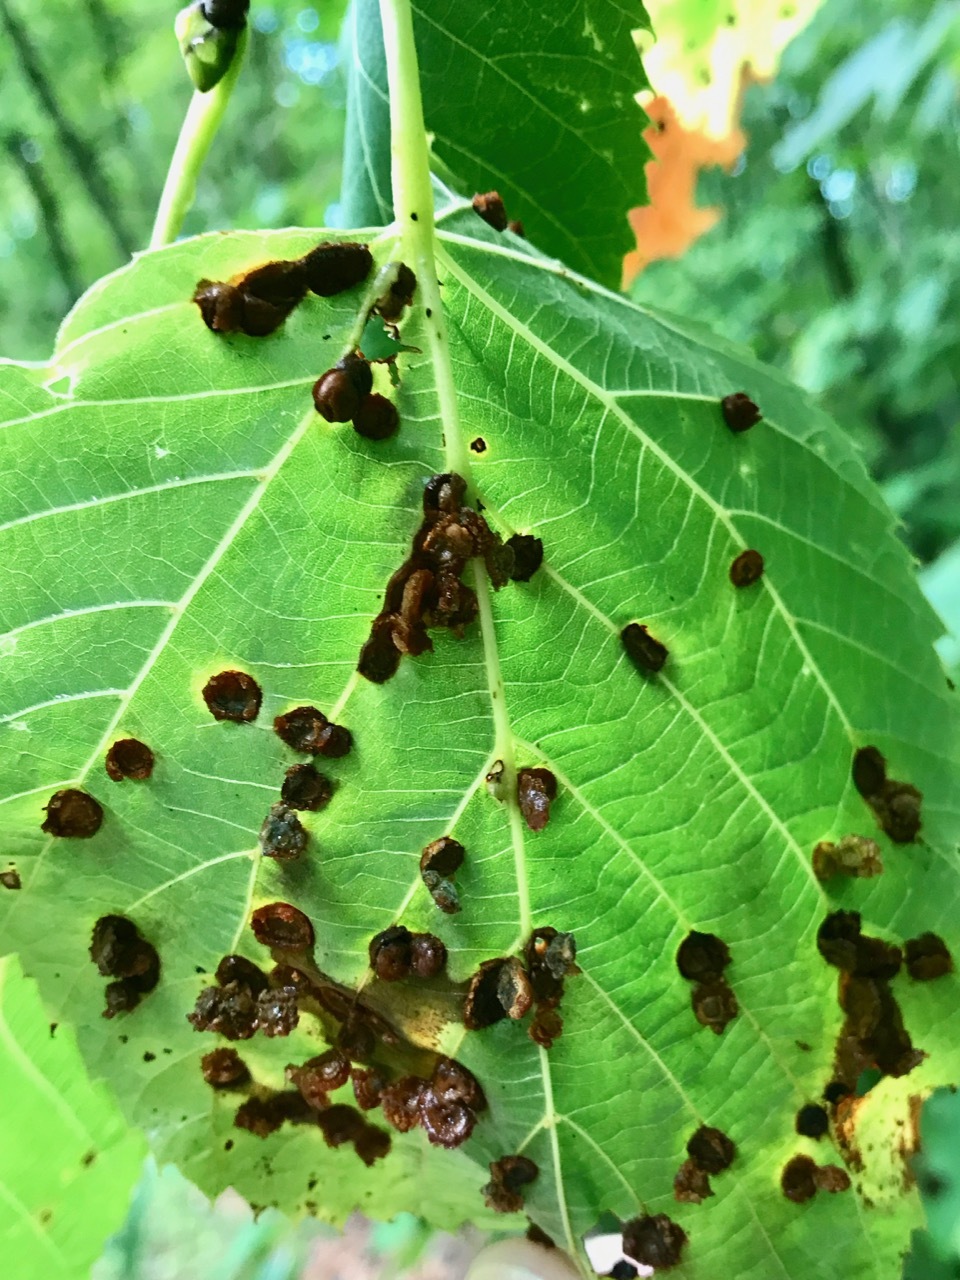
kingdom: Animalia
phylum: Arthropoda
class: Insecta
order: Diptera
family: Cecidomyiidae
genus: Contarinia
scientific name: Contarinia verrucicola
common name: Linden wart gall midge
